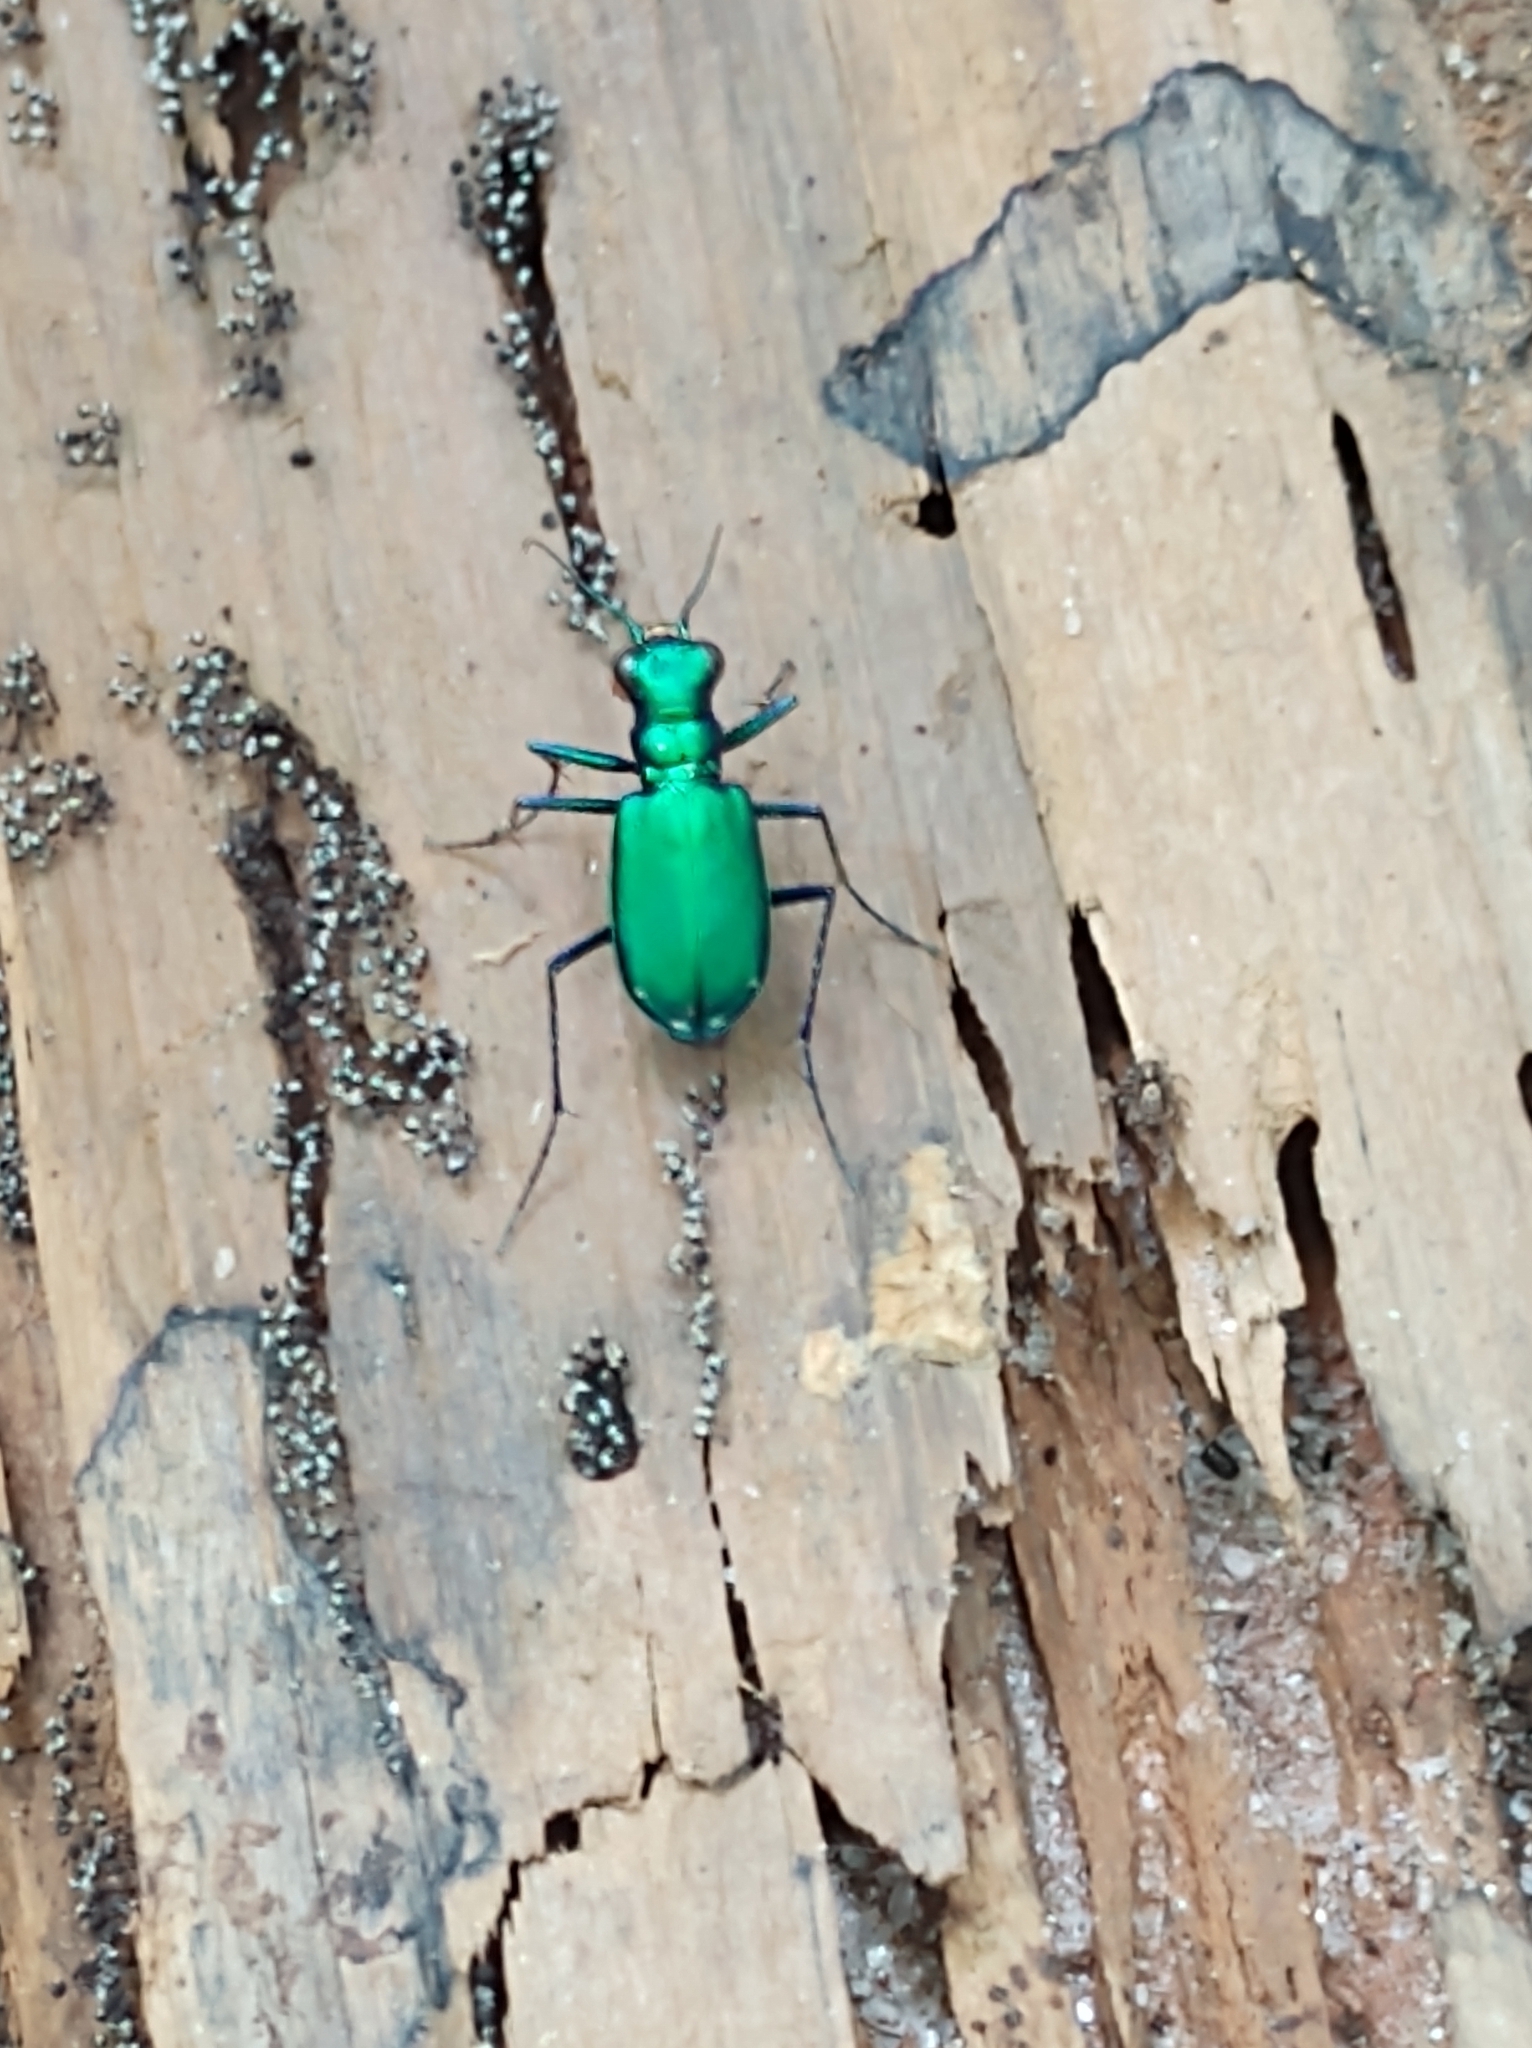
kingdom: Animalia
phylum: Arthropoda
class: Insecta
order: Coleoptera
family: Carabidae
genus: Cicindela
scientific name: Cicindela sexguttata
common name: Six-spotted tiger beetle
